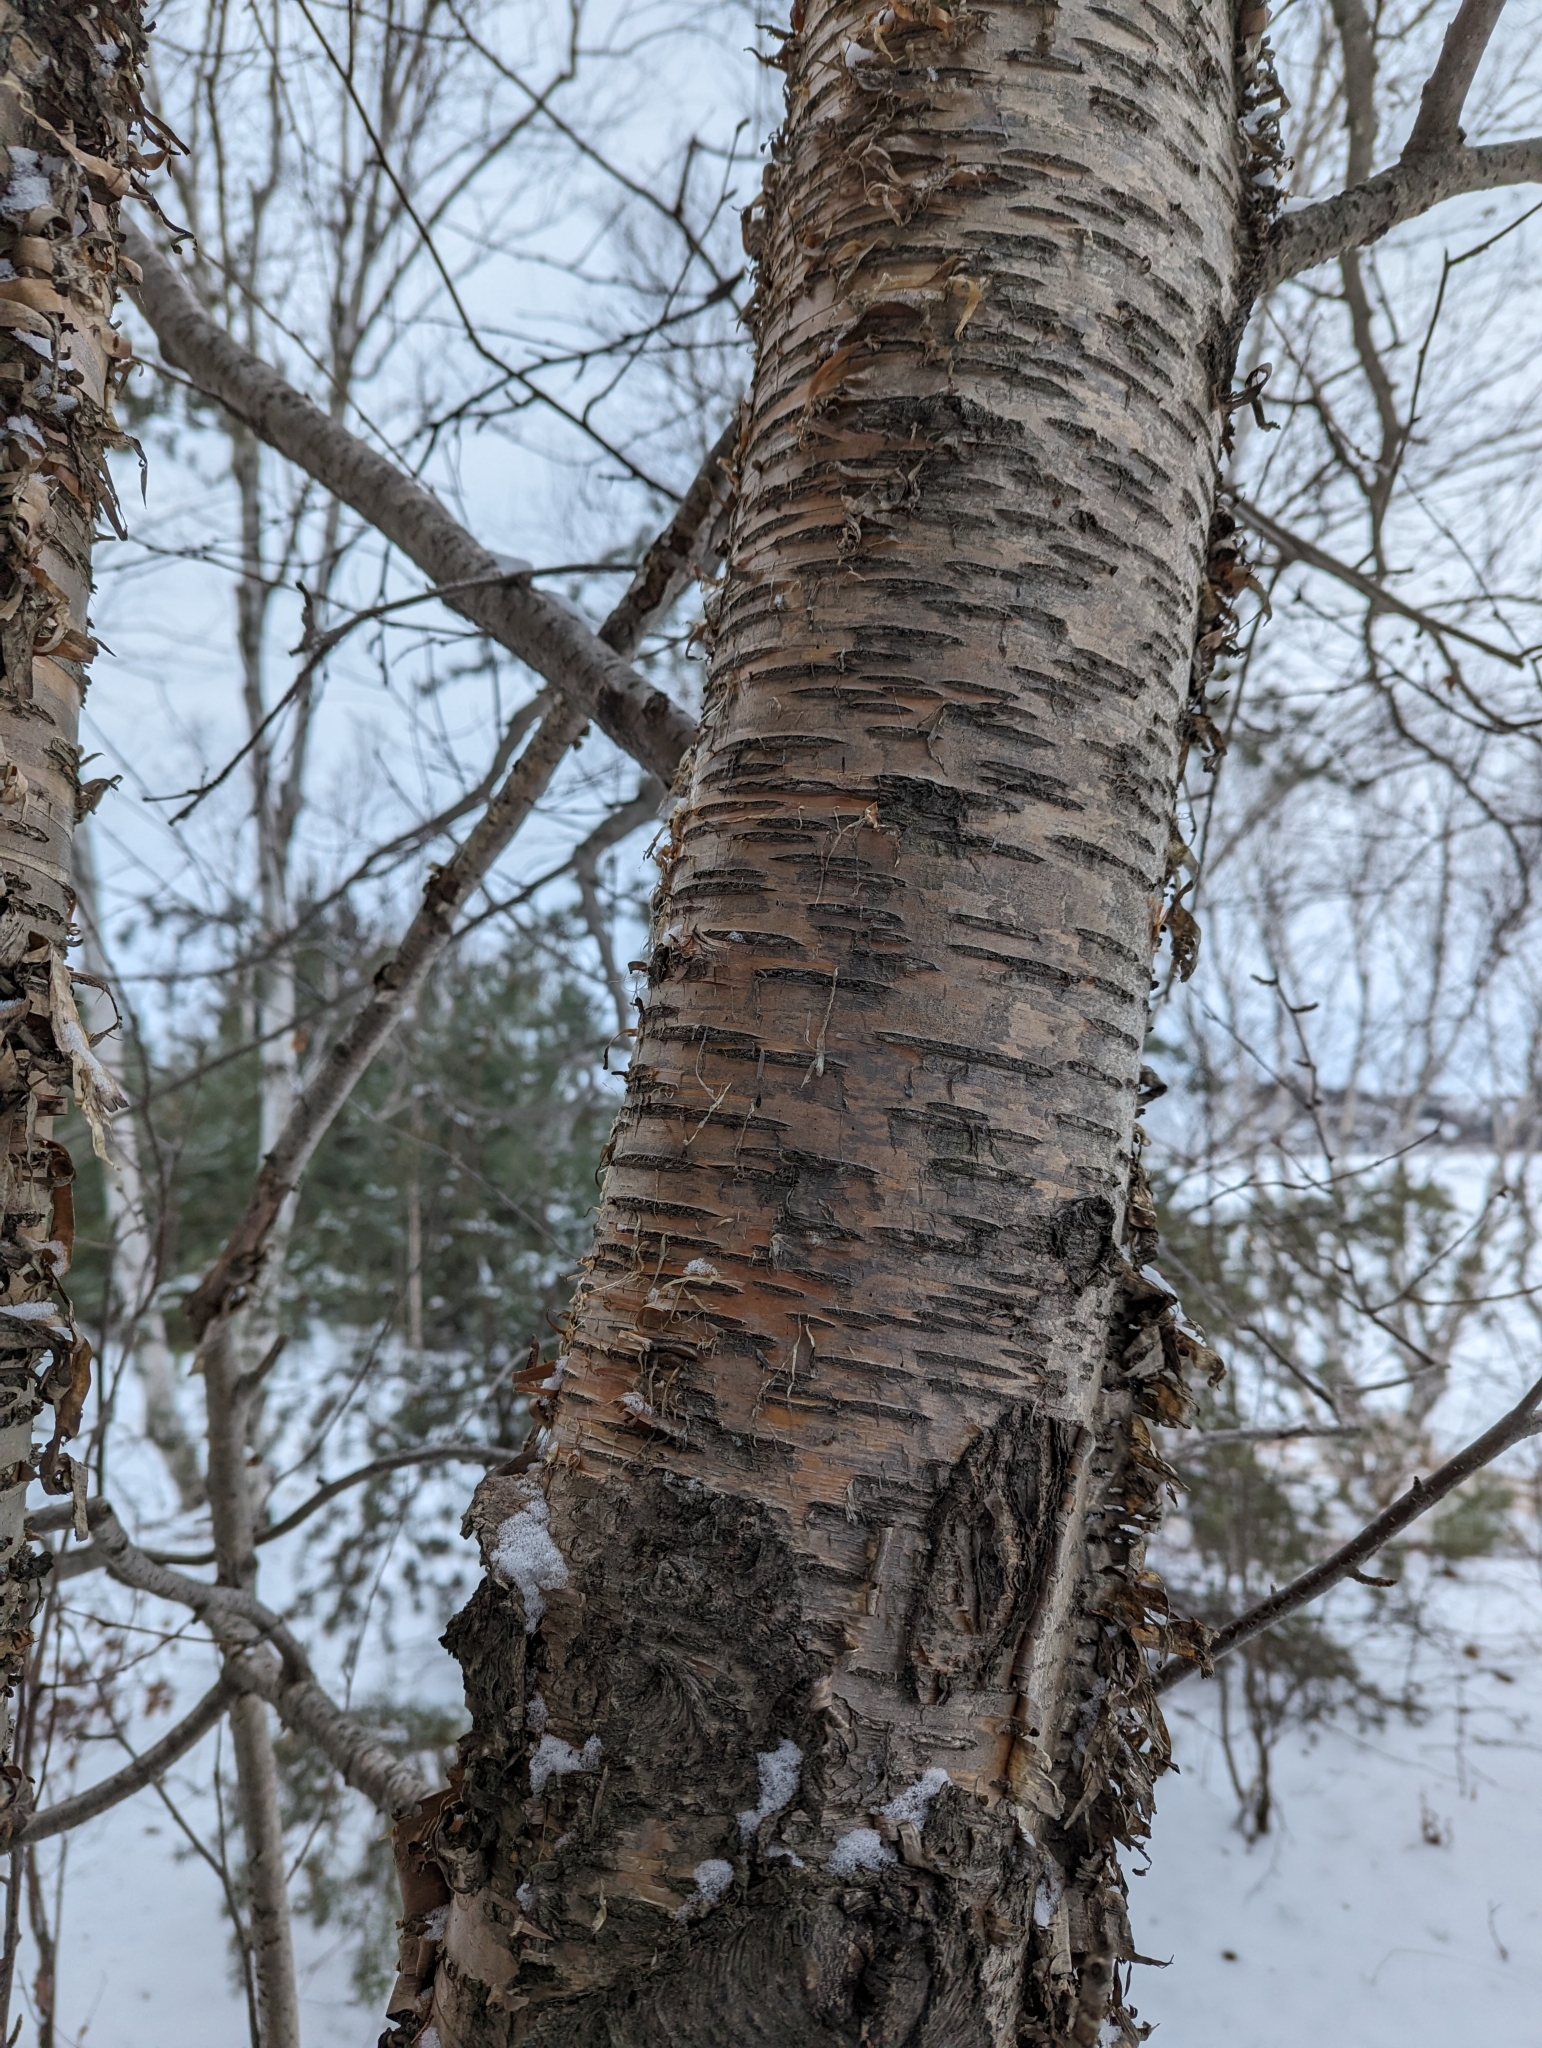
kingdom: Plantae
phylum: Tracheophyta
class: Magnoliopsida
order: Fagales
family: Betulaceae
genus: Betula
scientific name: Betula alleghaniensis
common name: Yellow birch
